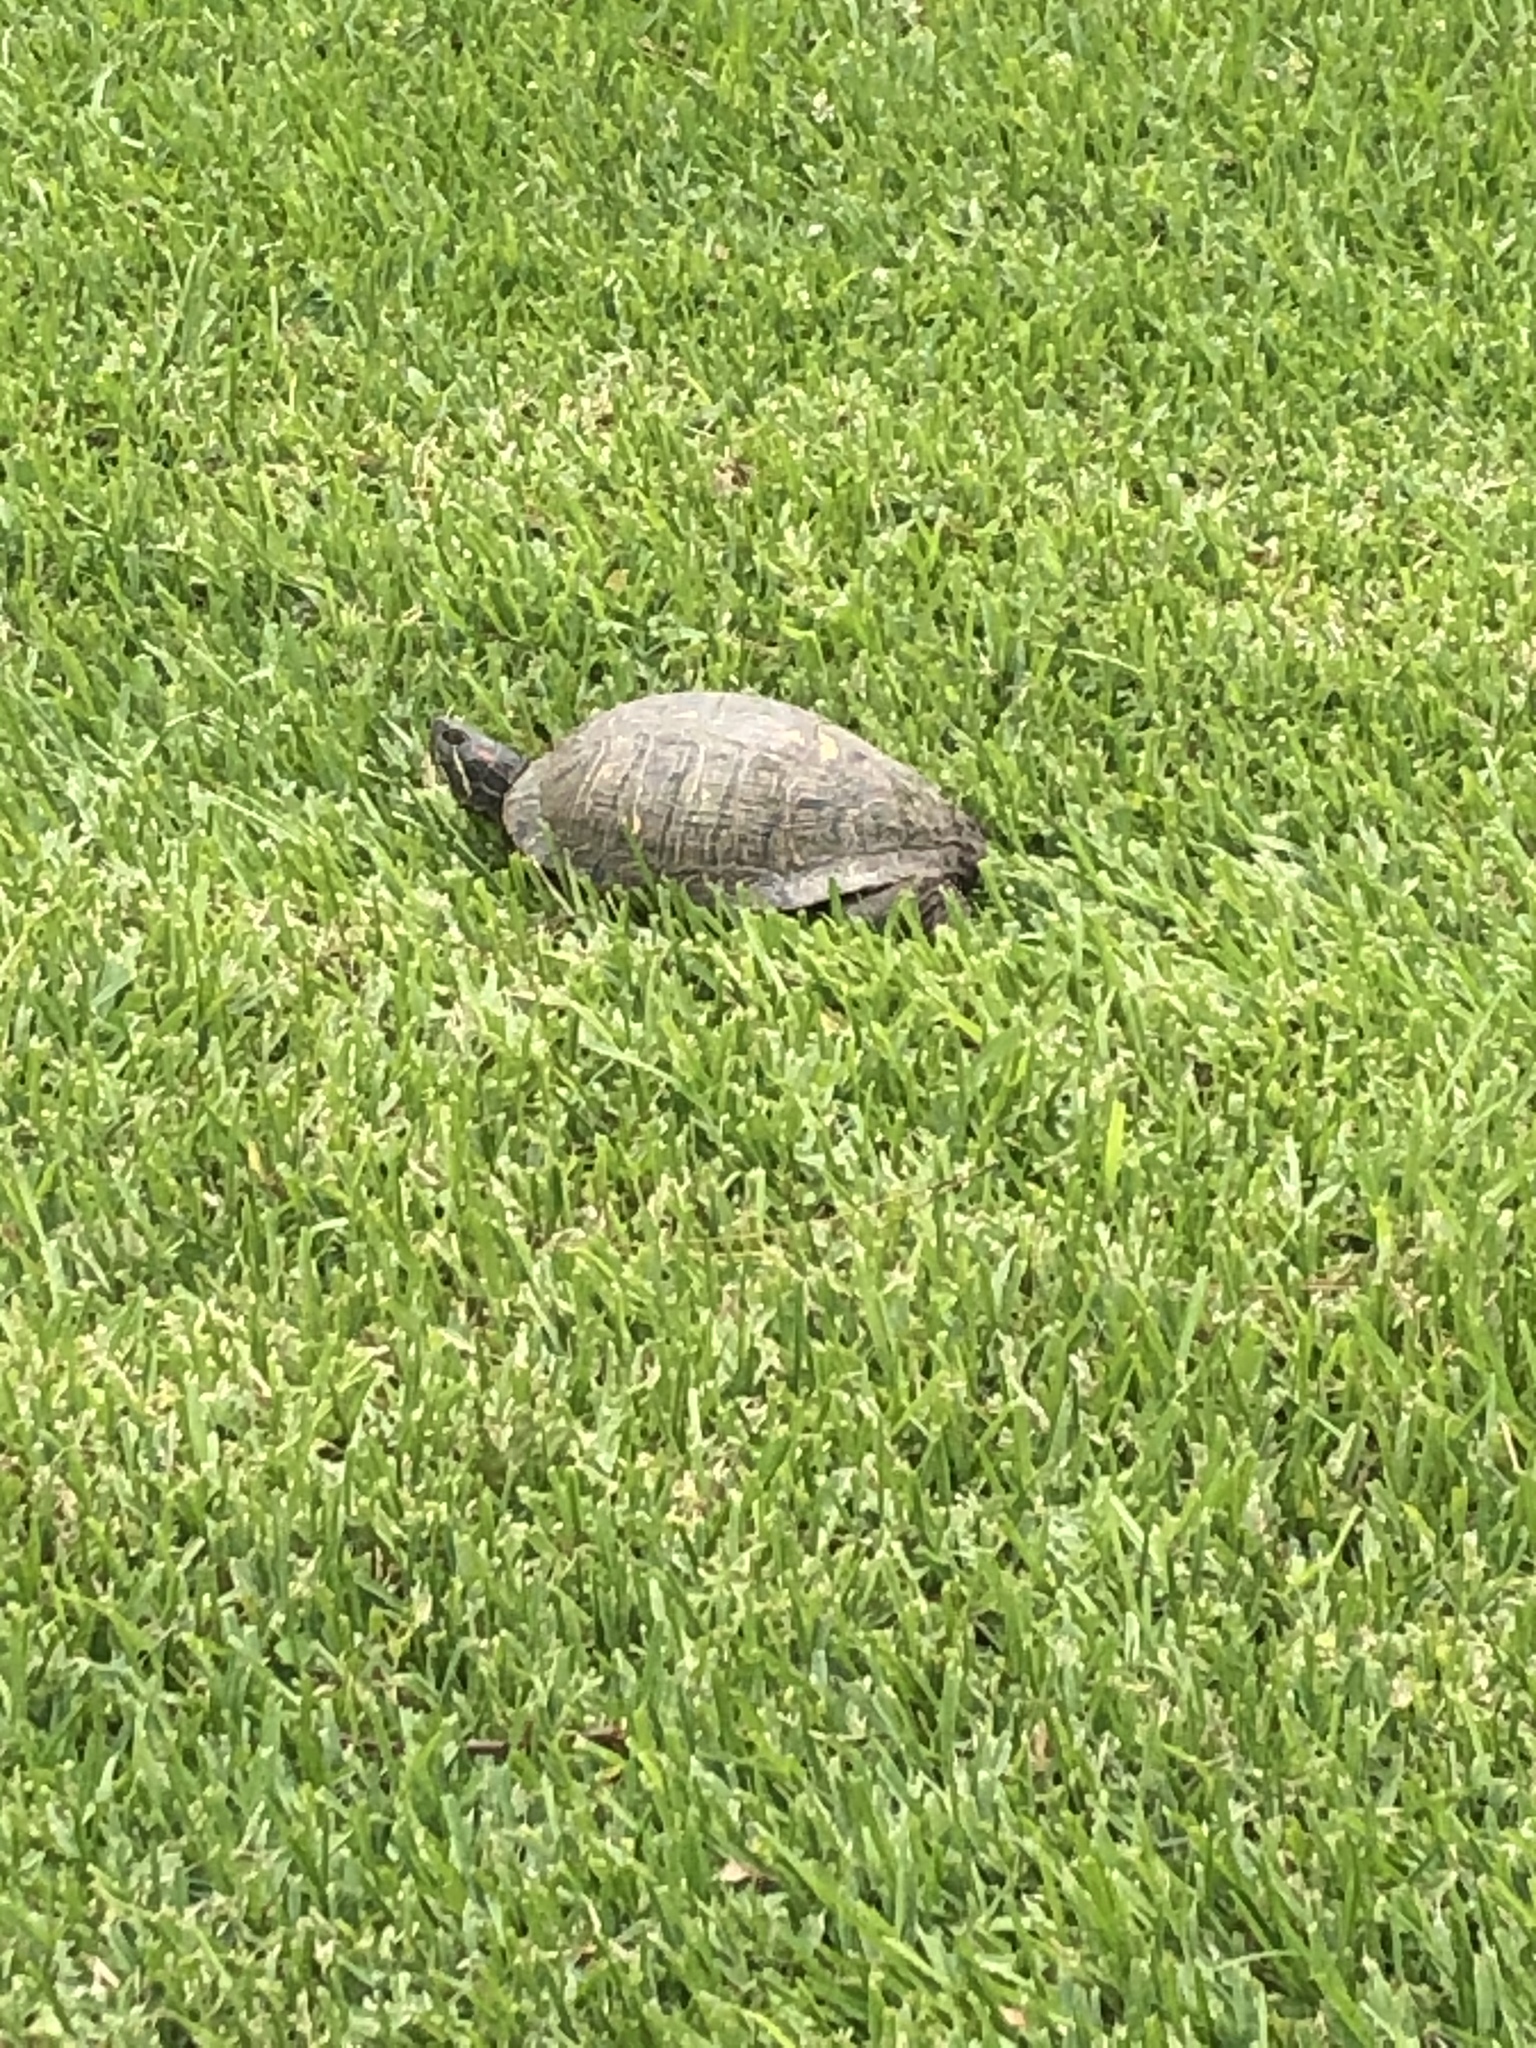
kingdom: Animalia
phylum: Chordata
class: Testudines
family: Emydidae
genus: Trachemys
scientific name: Trachemys scripta
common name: Slider
